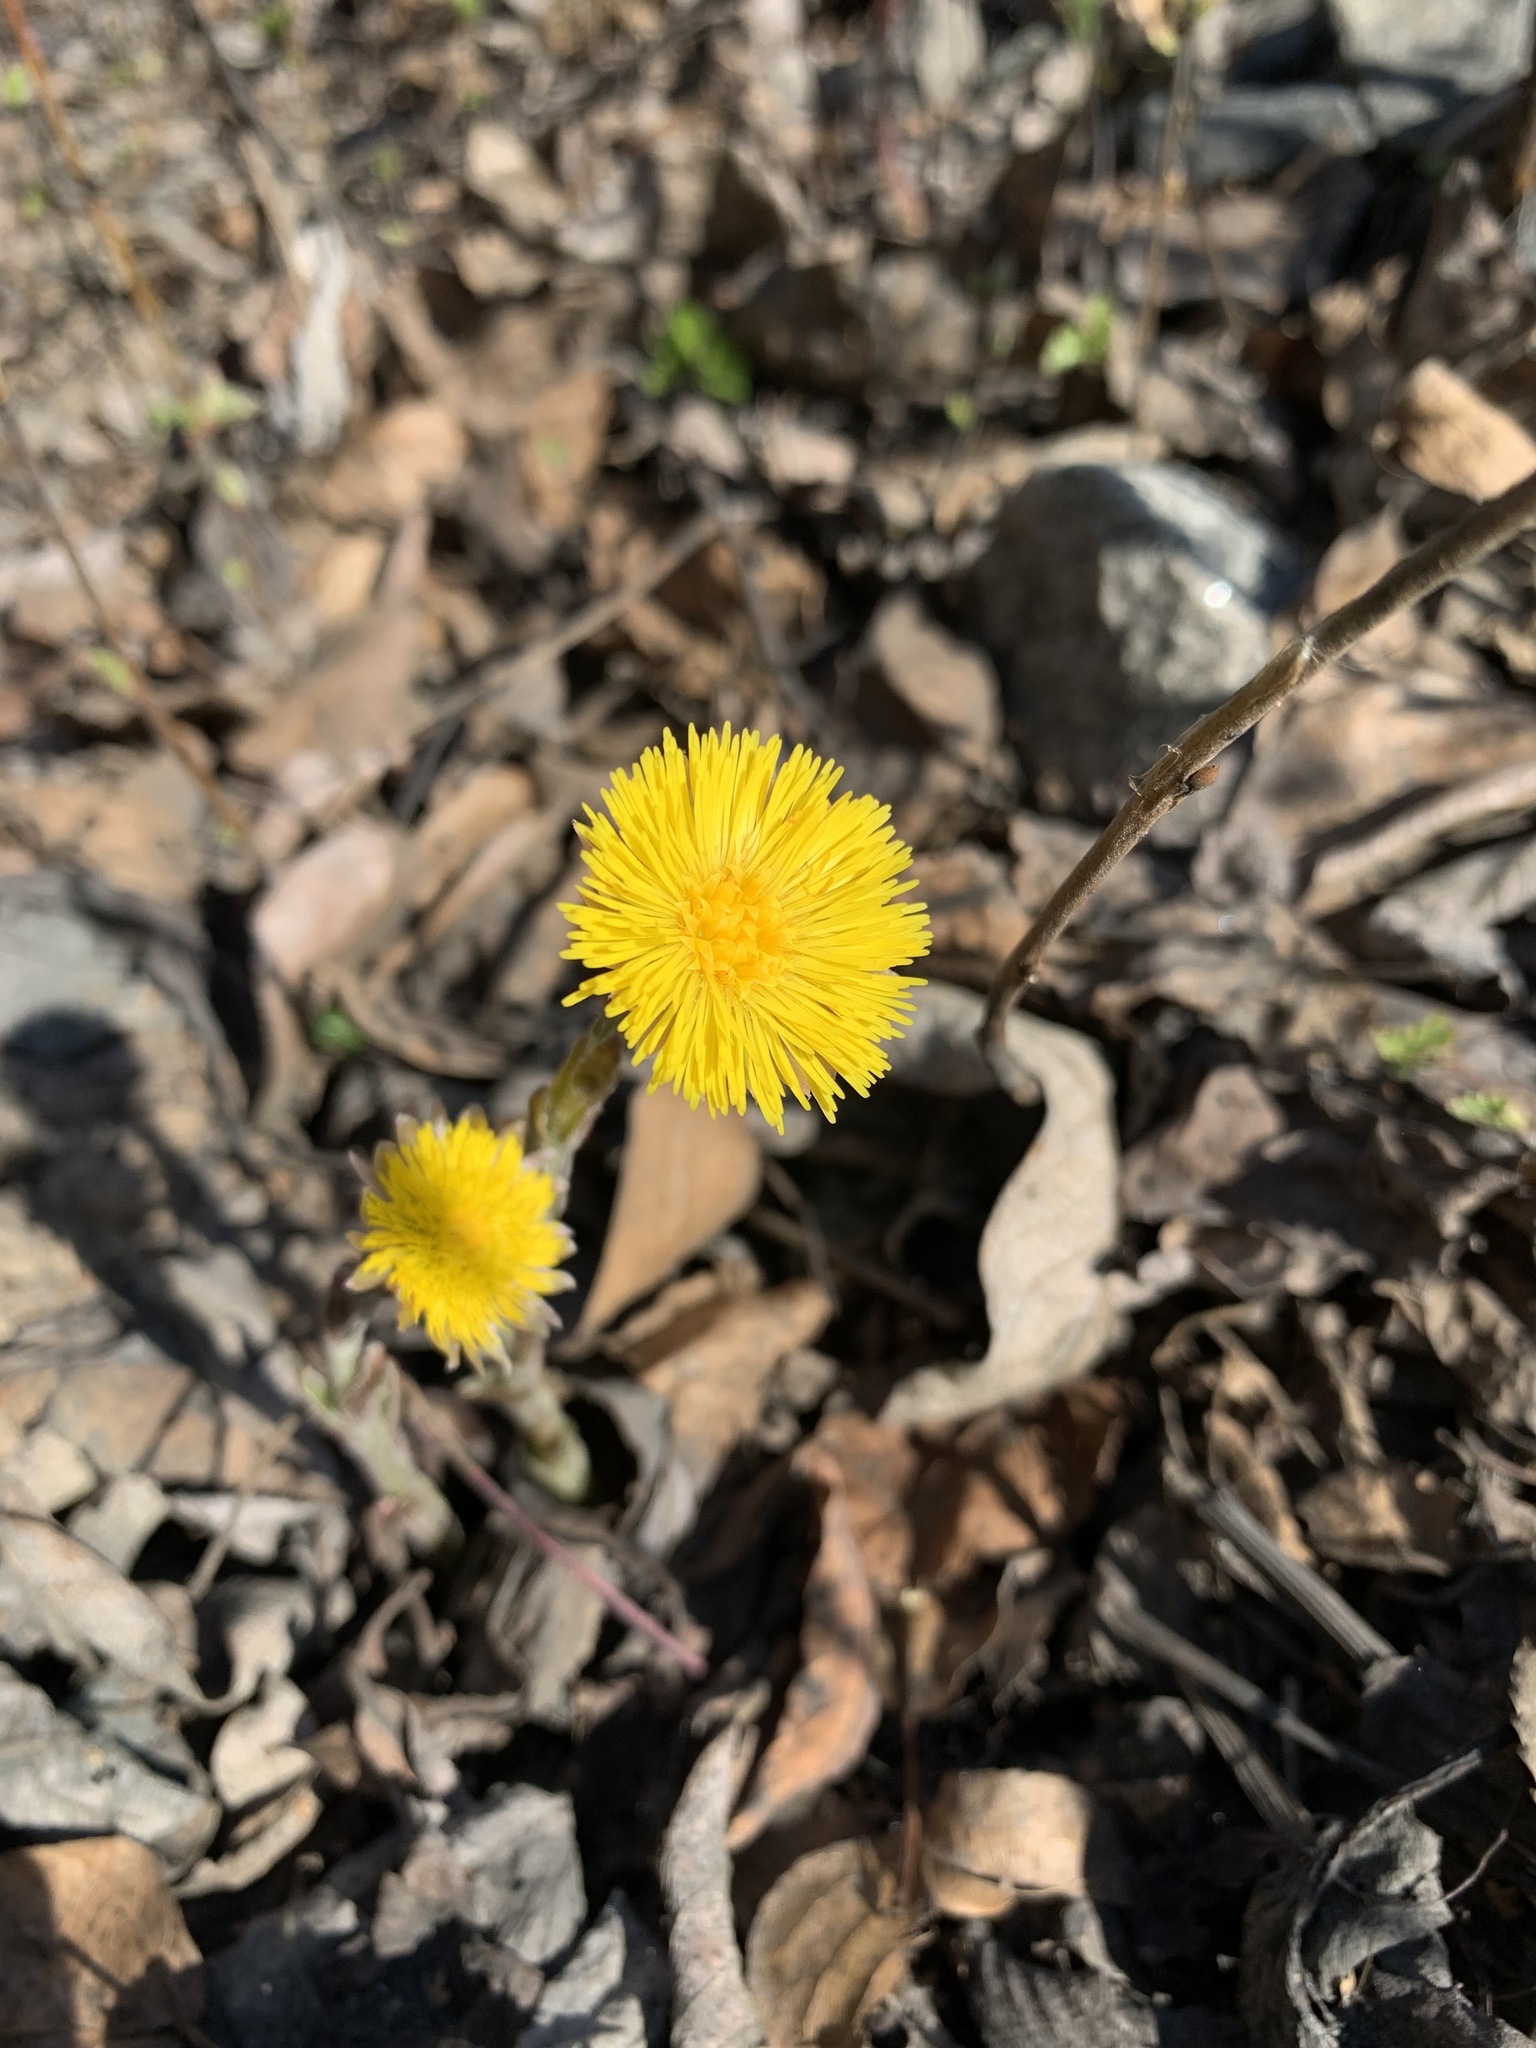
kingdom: Plantae
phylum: Tracheophyta
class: Magnoliopsida
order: Asterales
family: Asteraceae
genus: Tussilago
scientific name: Tussilago farfara
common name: Coltsfoot
